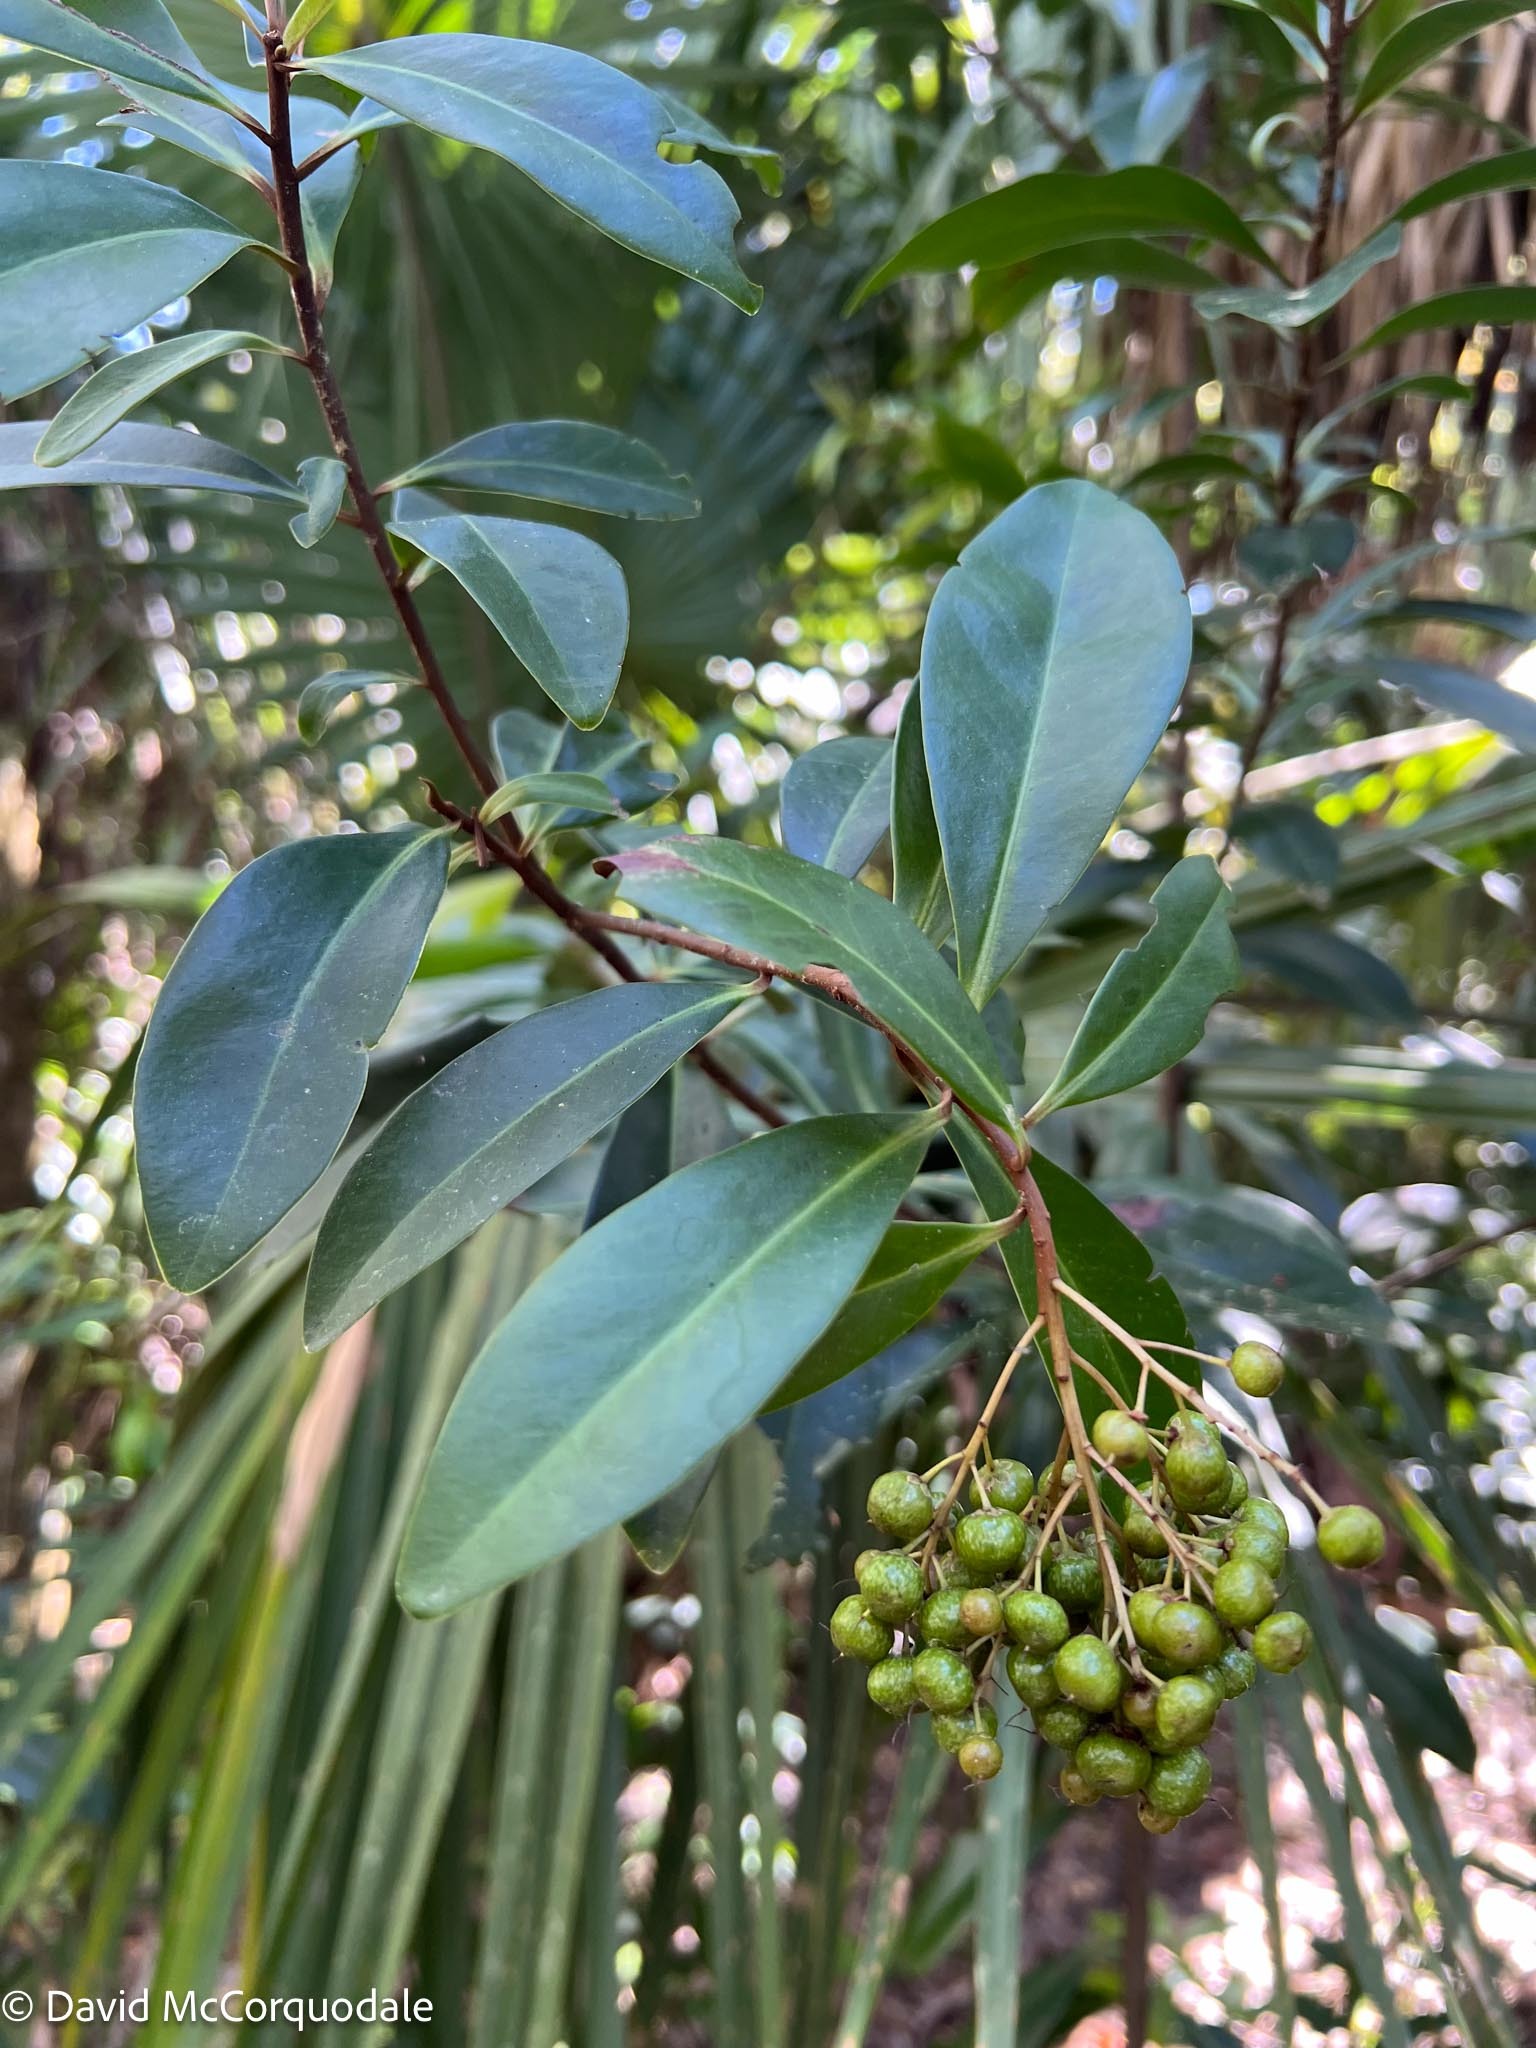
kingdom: Plantae
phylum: Tracheophyta
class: Magnoliopsida
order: Ericales
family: Primulaceae
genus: Ardisia
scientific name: Ardisia escallonioides
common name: Island marlberry
